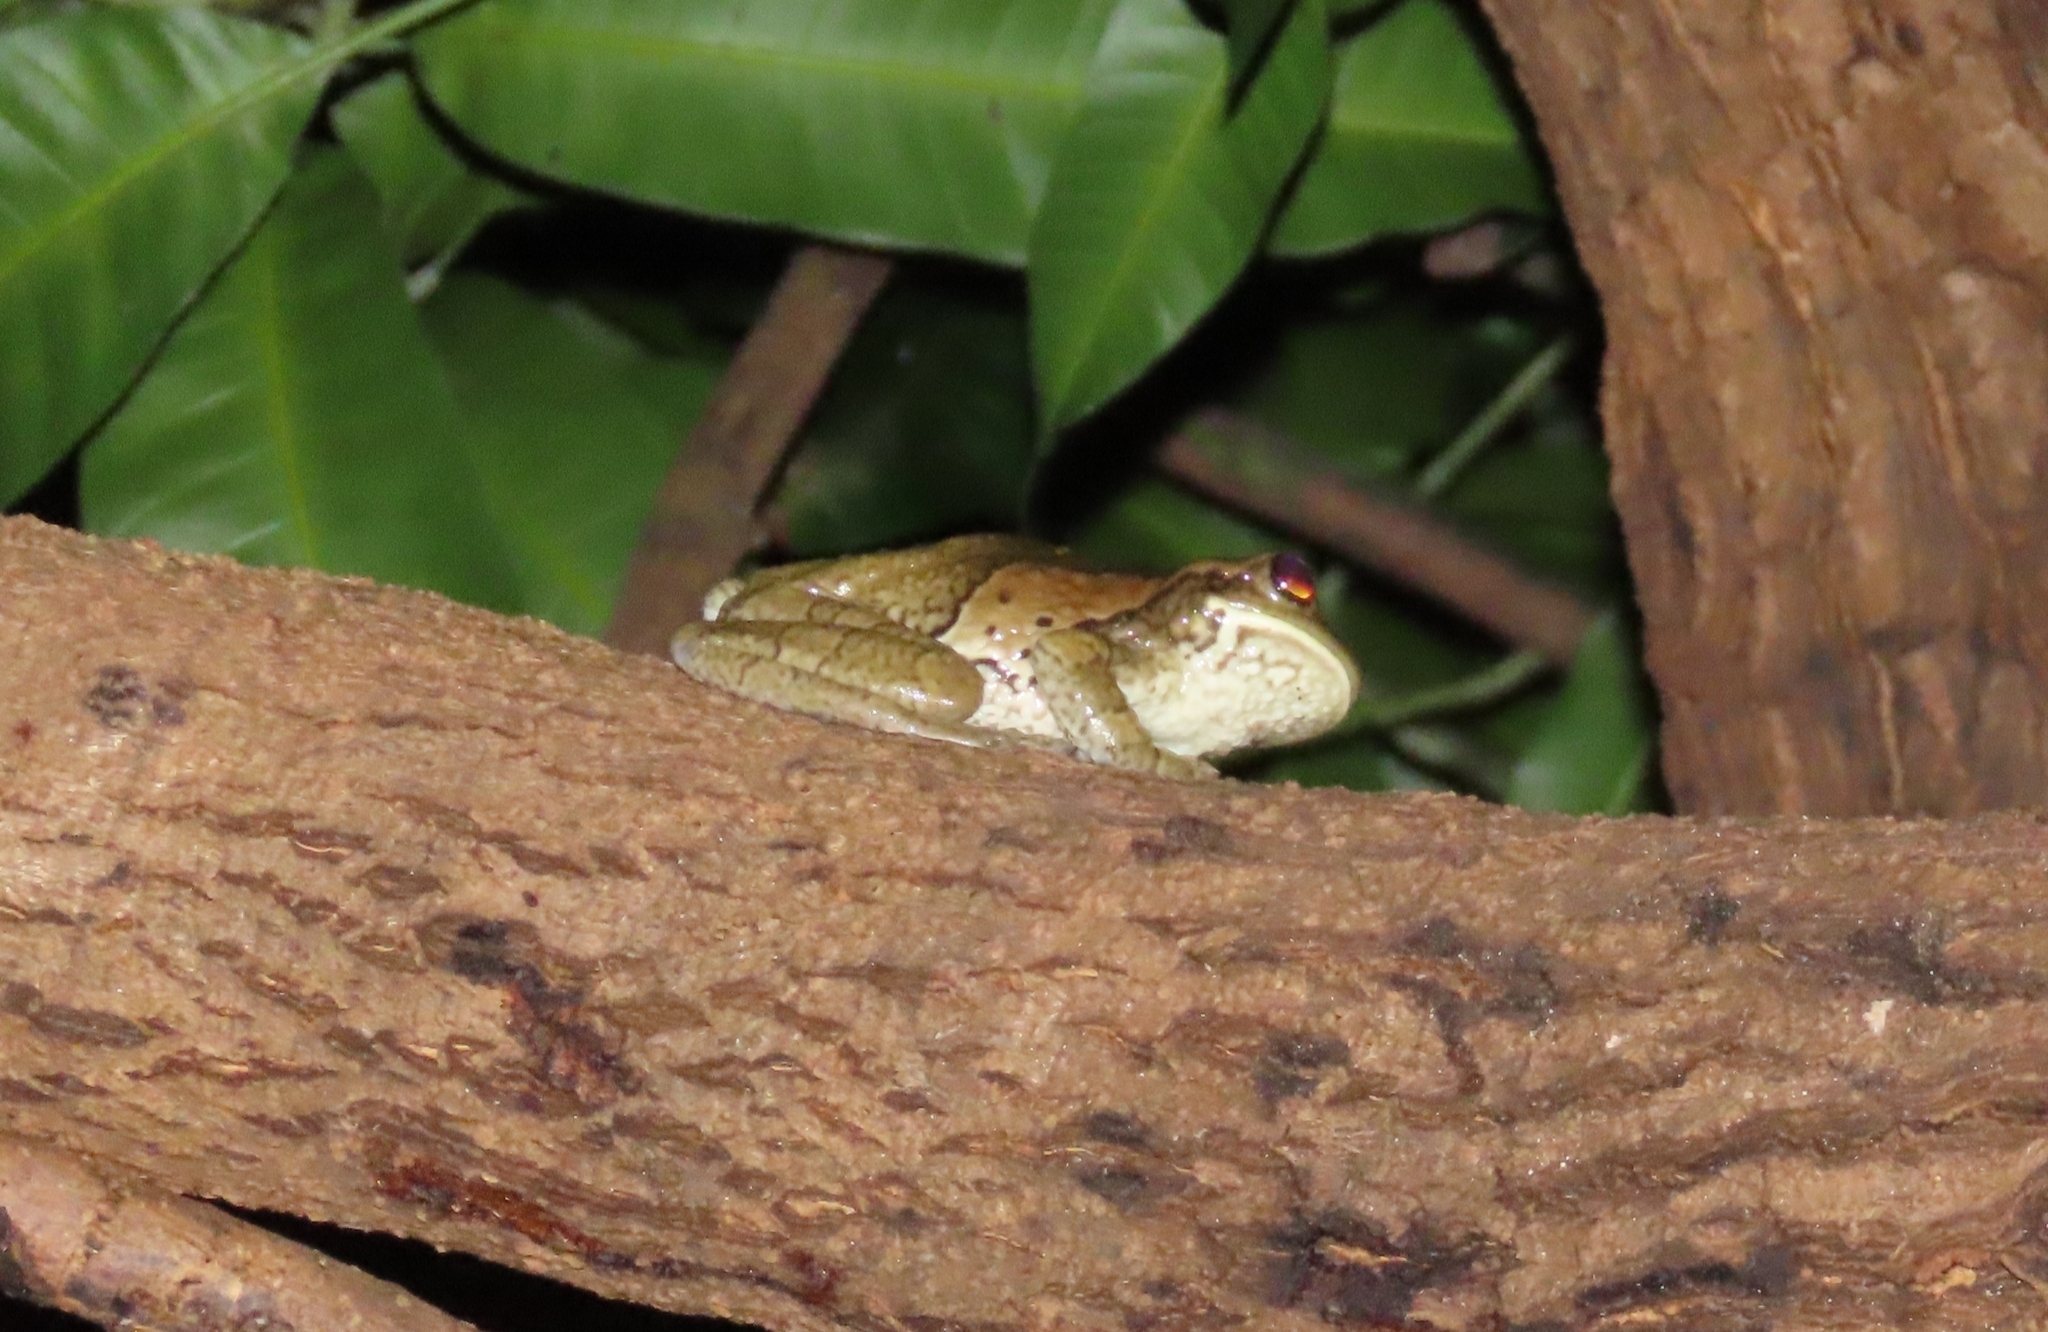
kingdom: Animalia
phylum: Chordata
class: Amphibia
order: Anura
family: Hylidae
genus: Trachycephalus
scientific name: Trachycephalus vermiculatus
